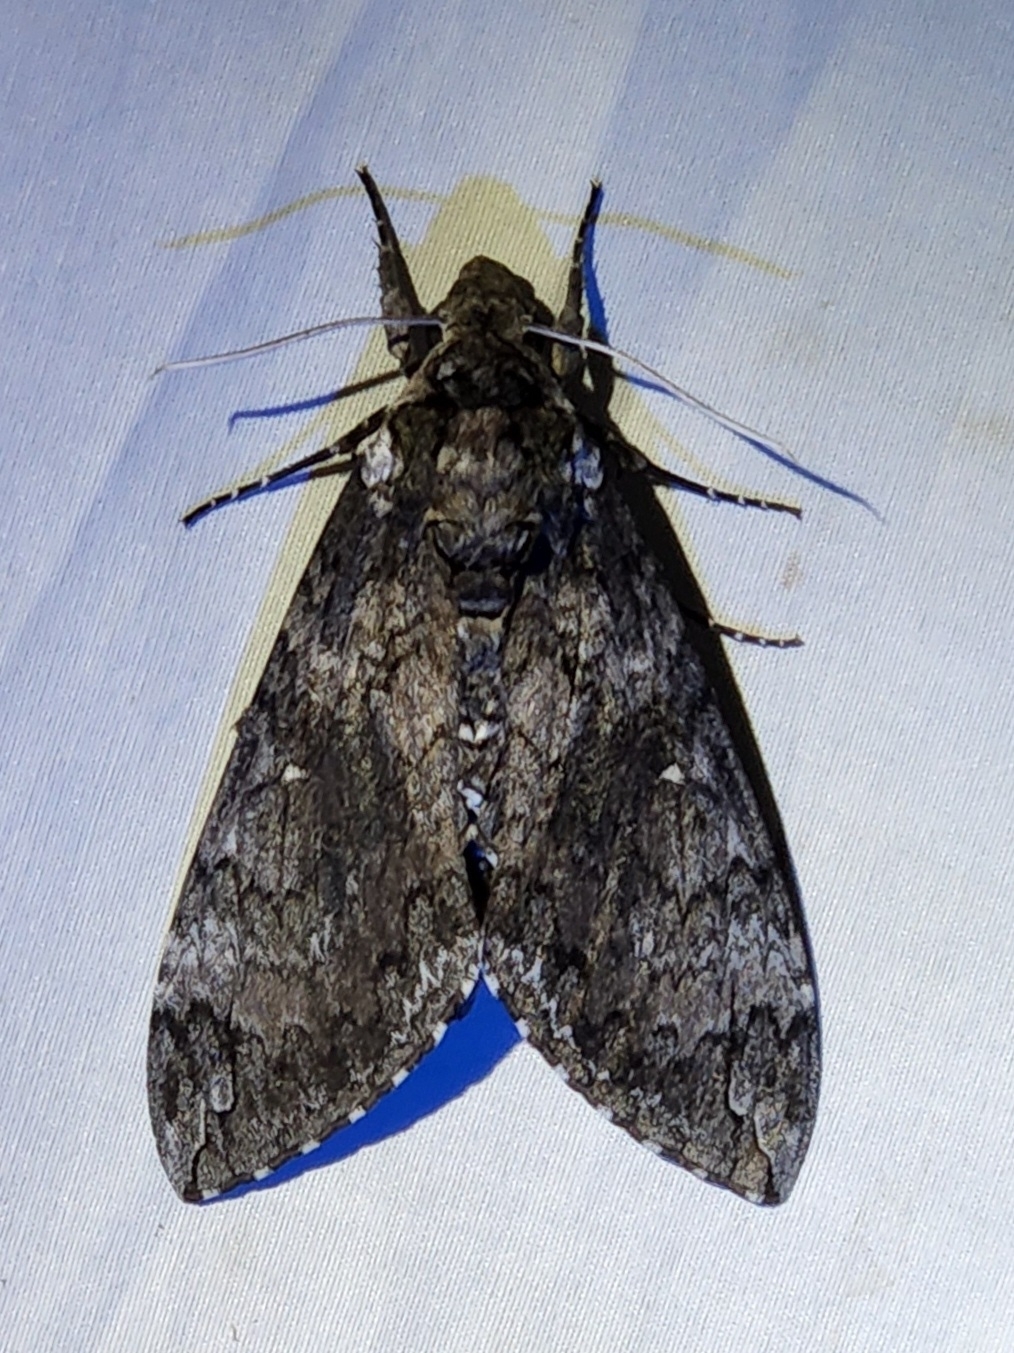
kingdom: Animalia
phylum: Arthropoda
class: Insecta
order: Lepidoptera
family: Sphingidae
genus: Manduca
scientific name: Manduca sexta
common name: Carolina sphinx
